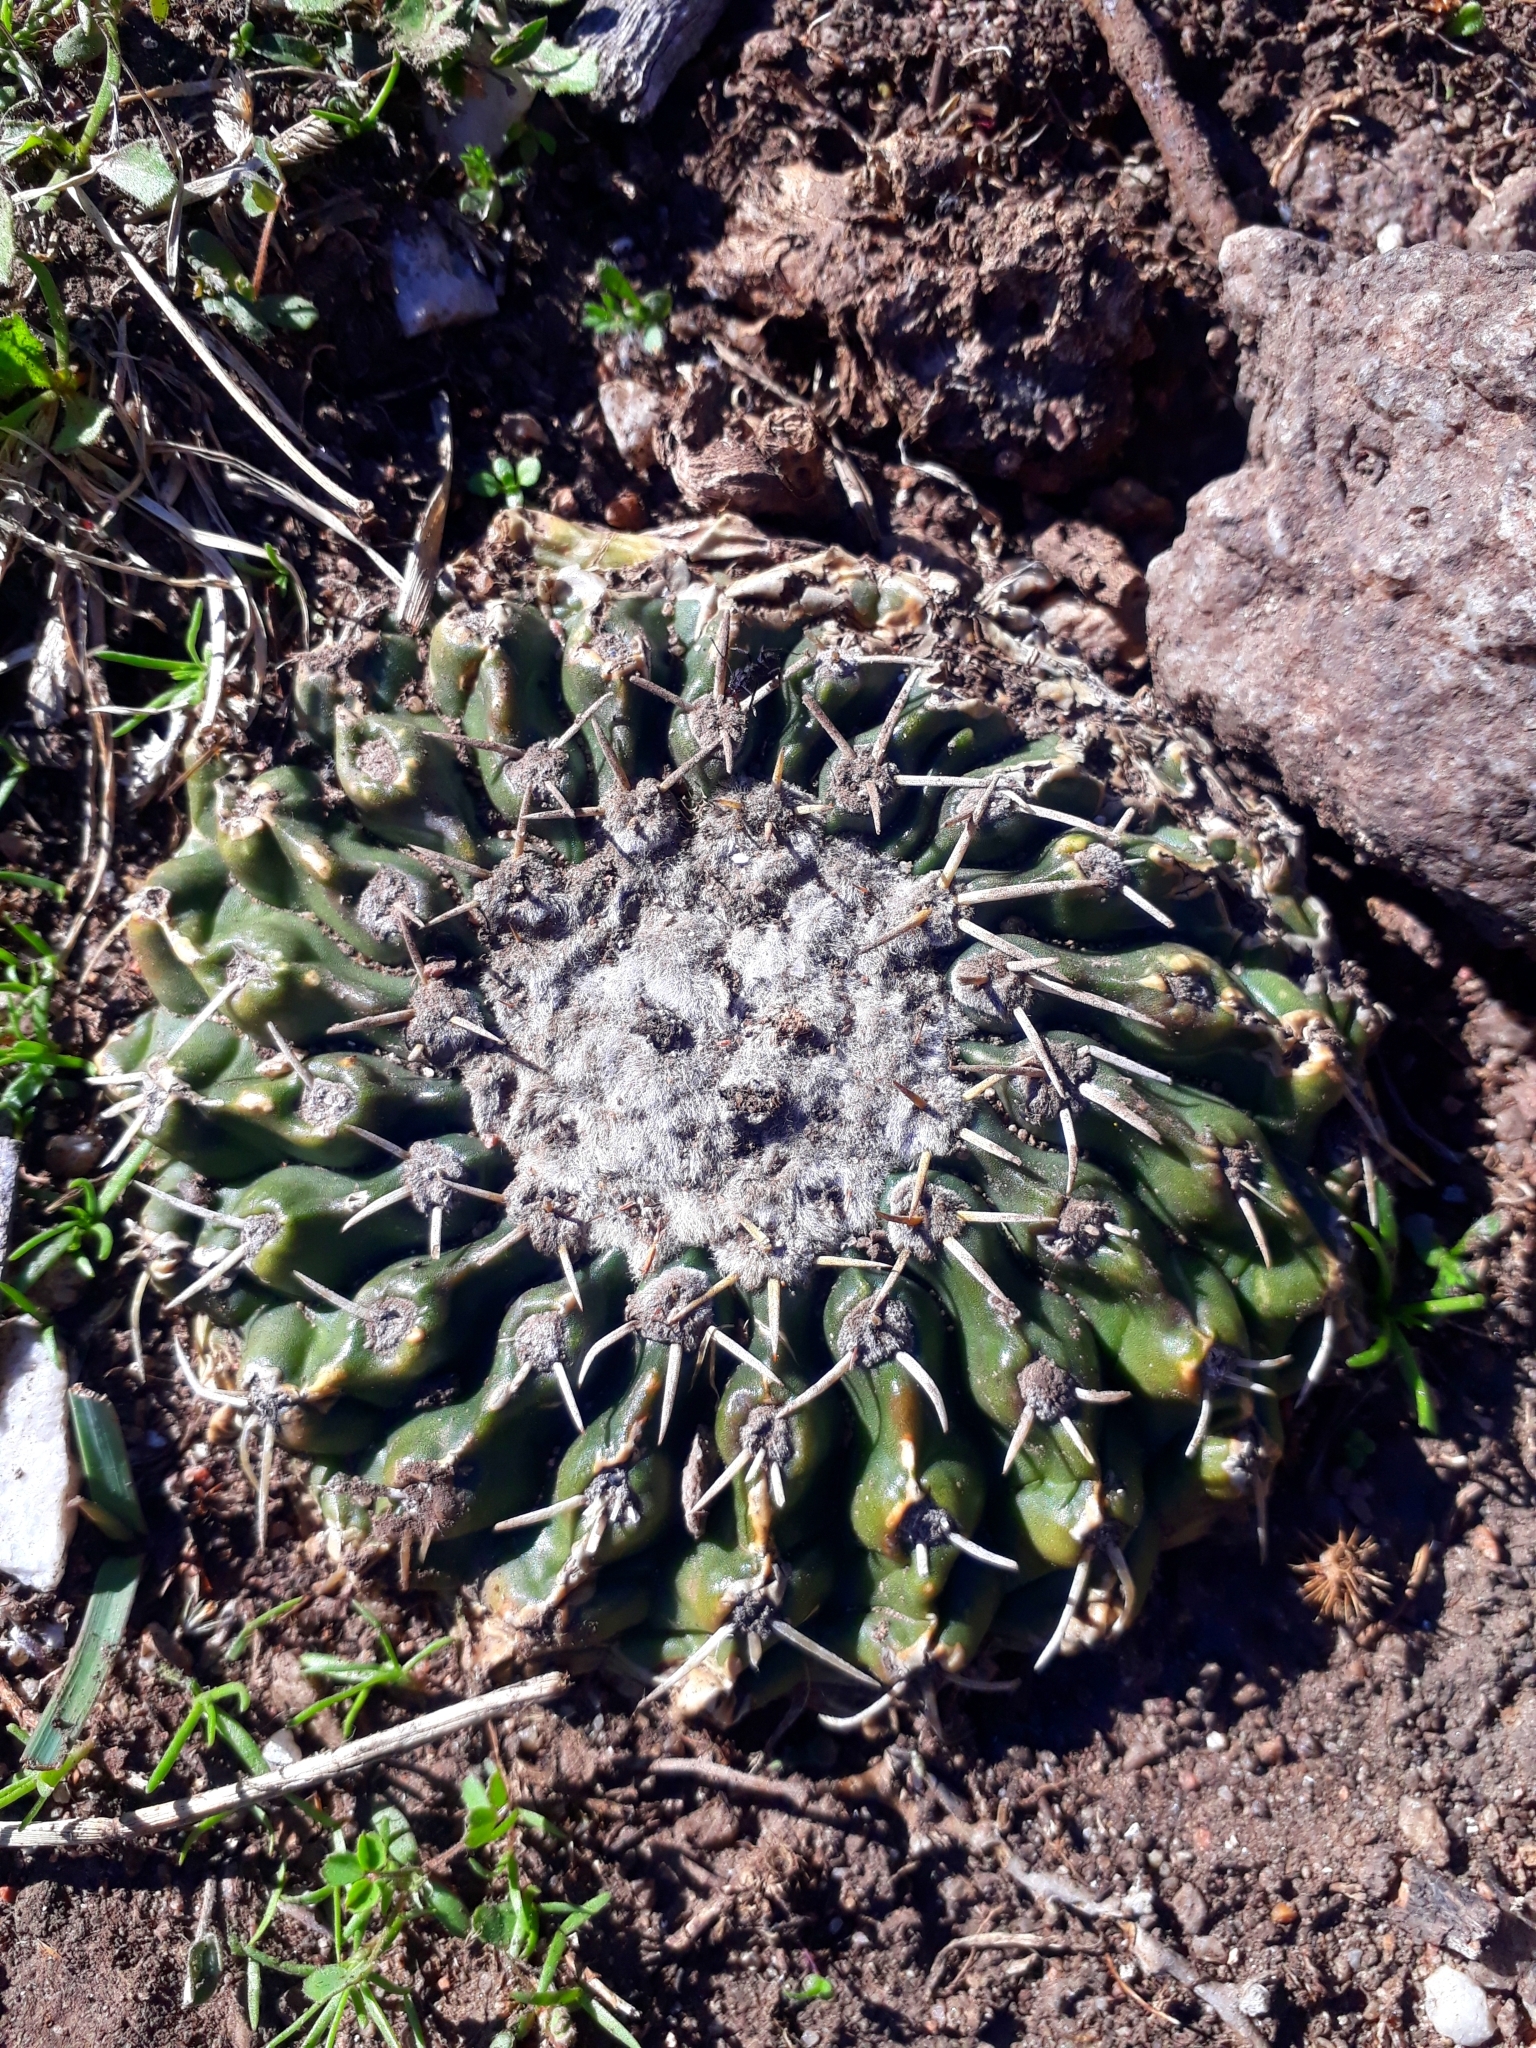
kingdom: Plantae
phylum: Tracheophyta
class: Magnoliopsida
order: Caryophyllales
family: Cactaceae
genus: Parodia
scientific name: Parodia erinacea
